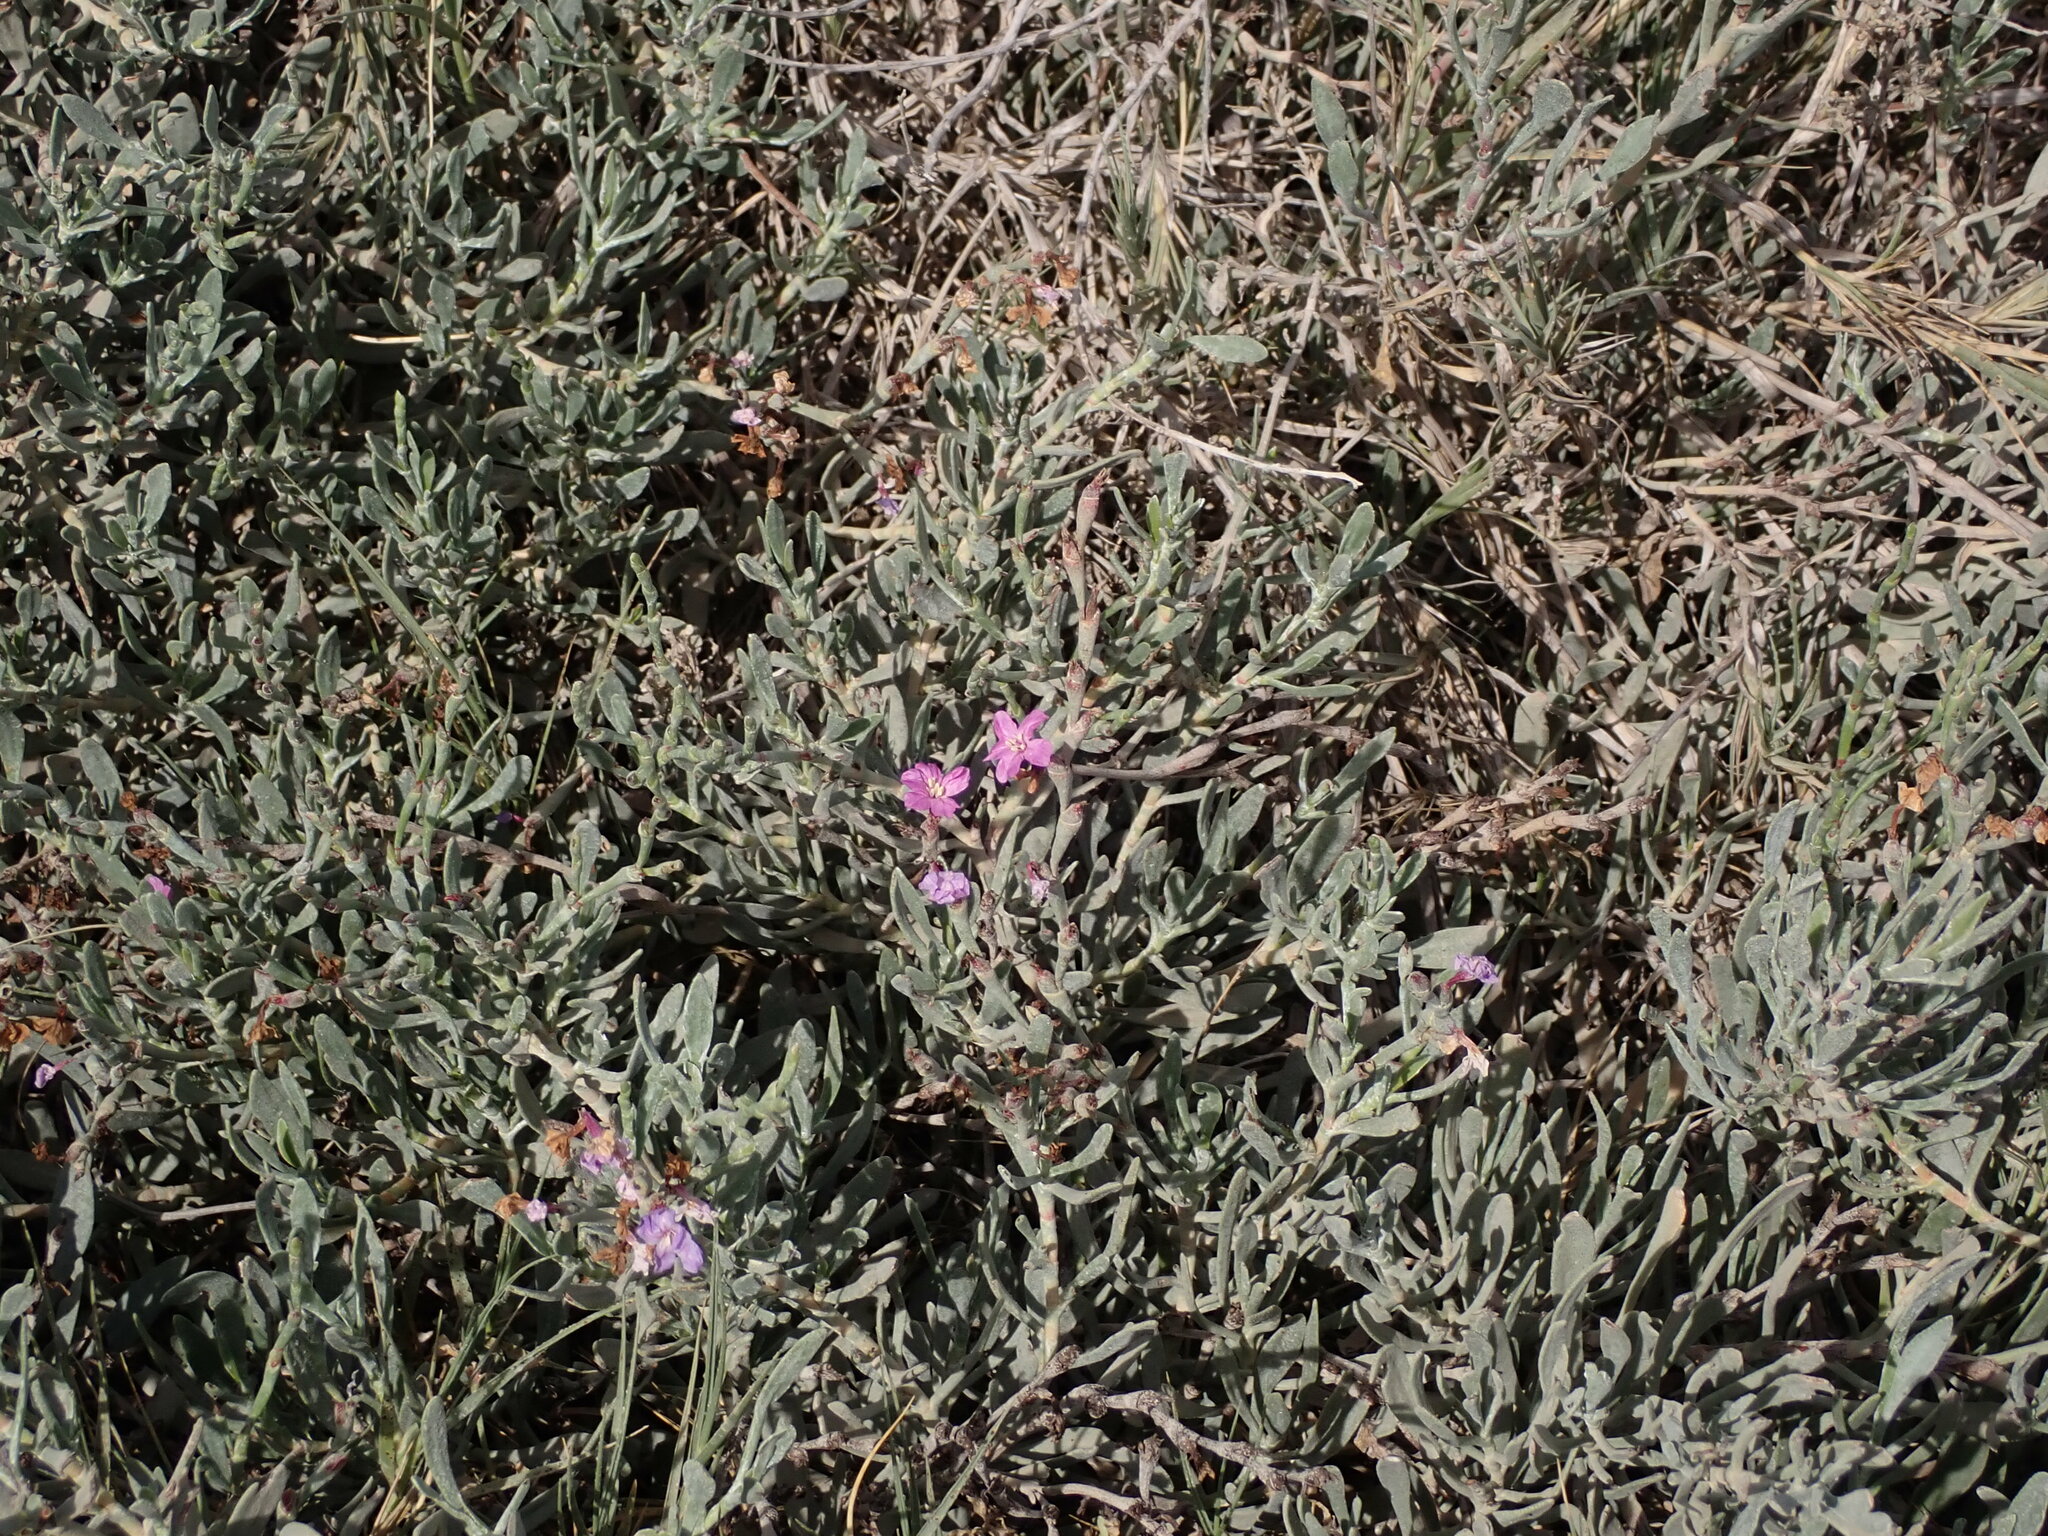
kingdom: Plantae
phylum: Tracheophyta
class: Magnoliopsida
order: Caryophyllales
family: Plumbaginaceae
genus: Limoniastrum
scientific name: Limoniastrum monopetalum
